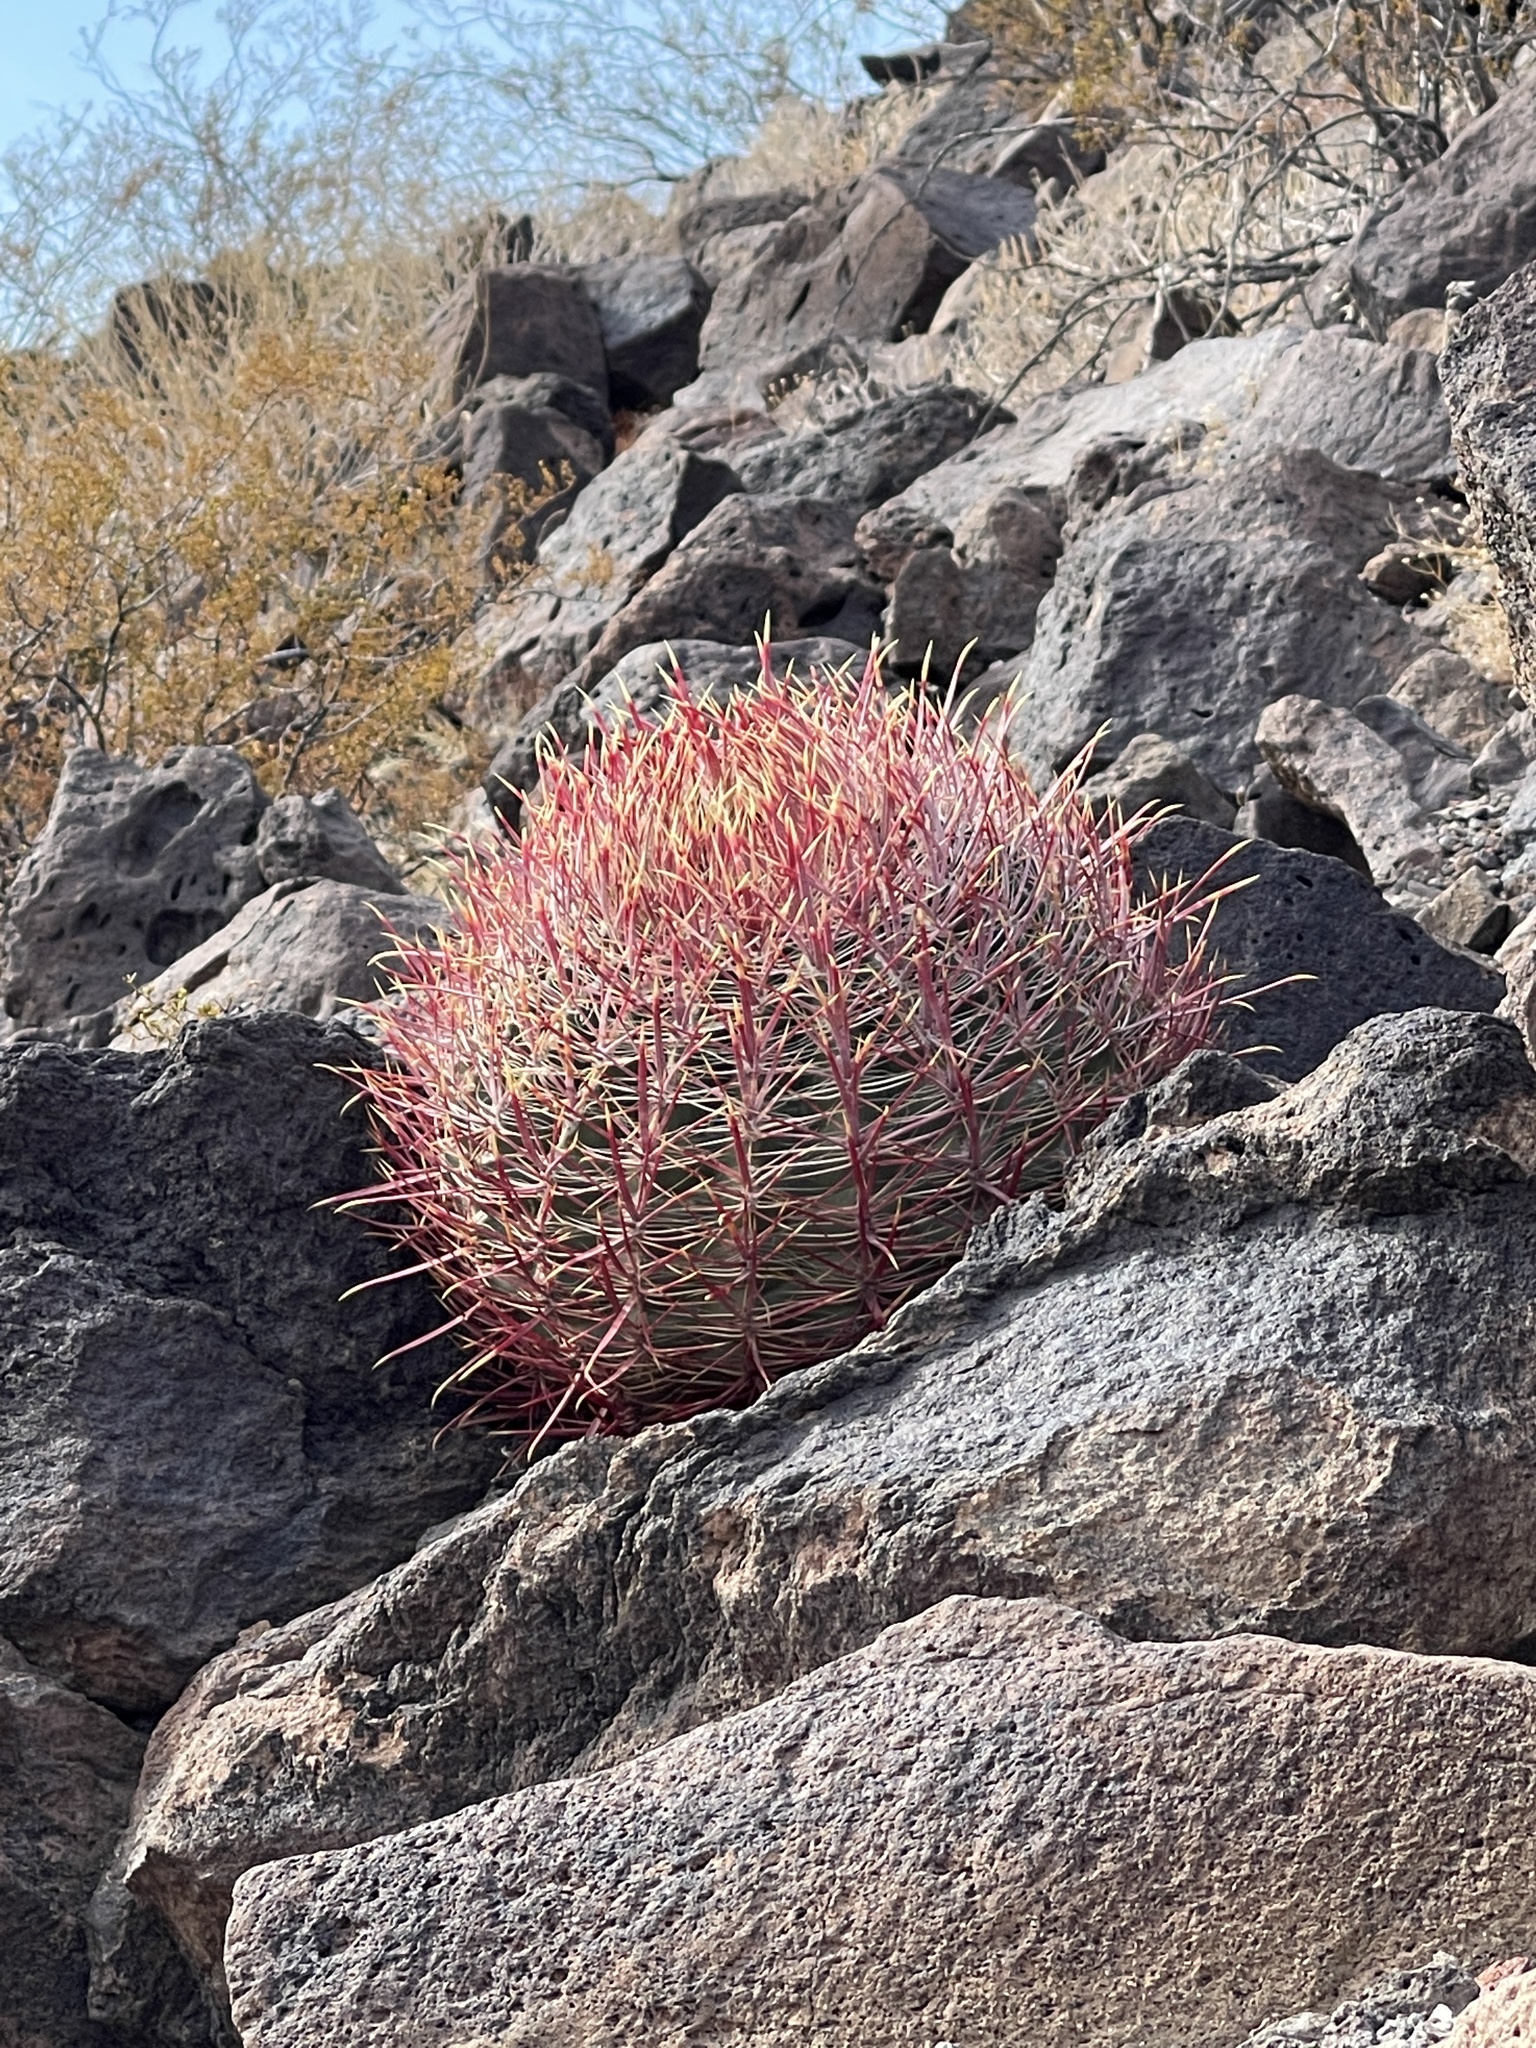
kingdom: Plantae
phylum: Tracheophyta
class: Magnoliopsida
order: Caryophyllales
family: Cactaceae
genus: Ferocactus
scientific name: Ferocactus cylindraceus
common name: California barrel cactus
